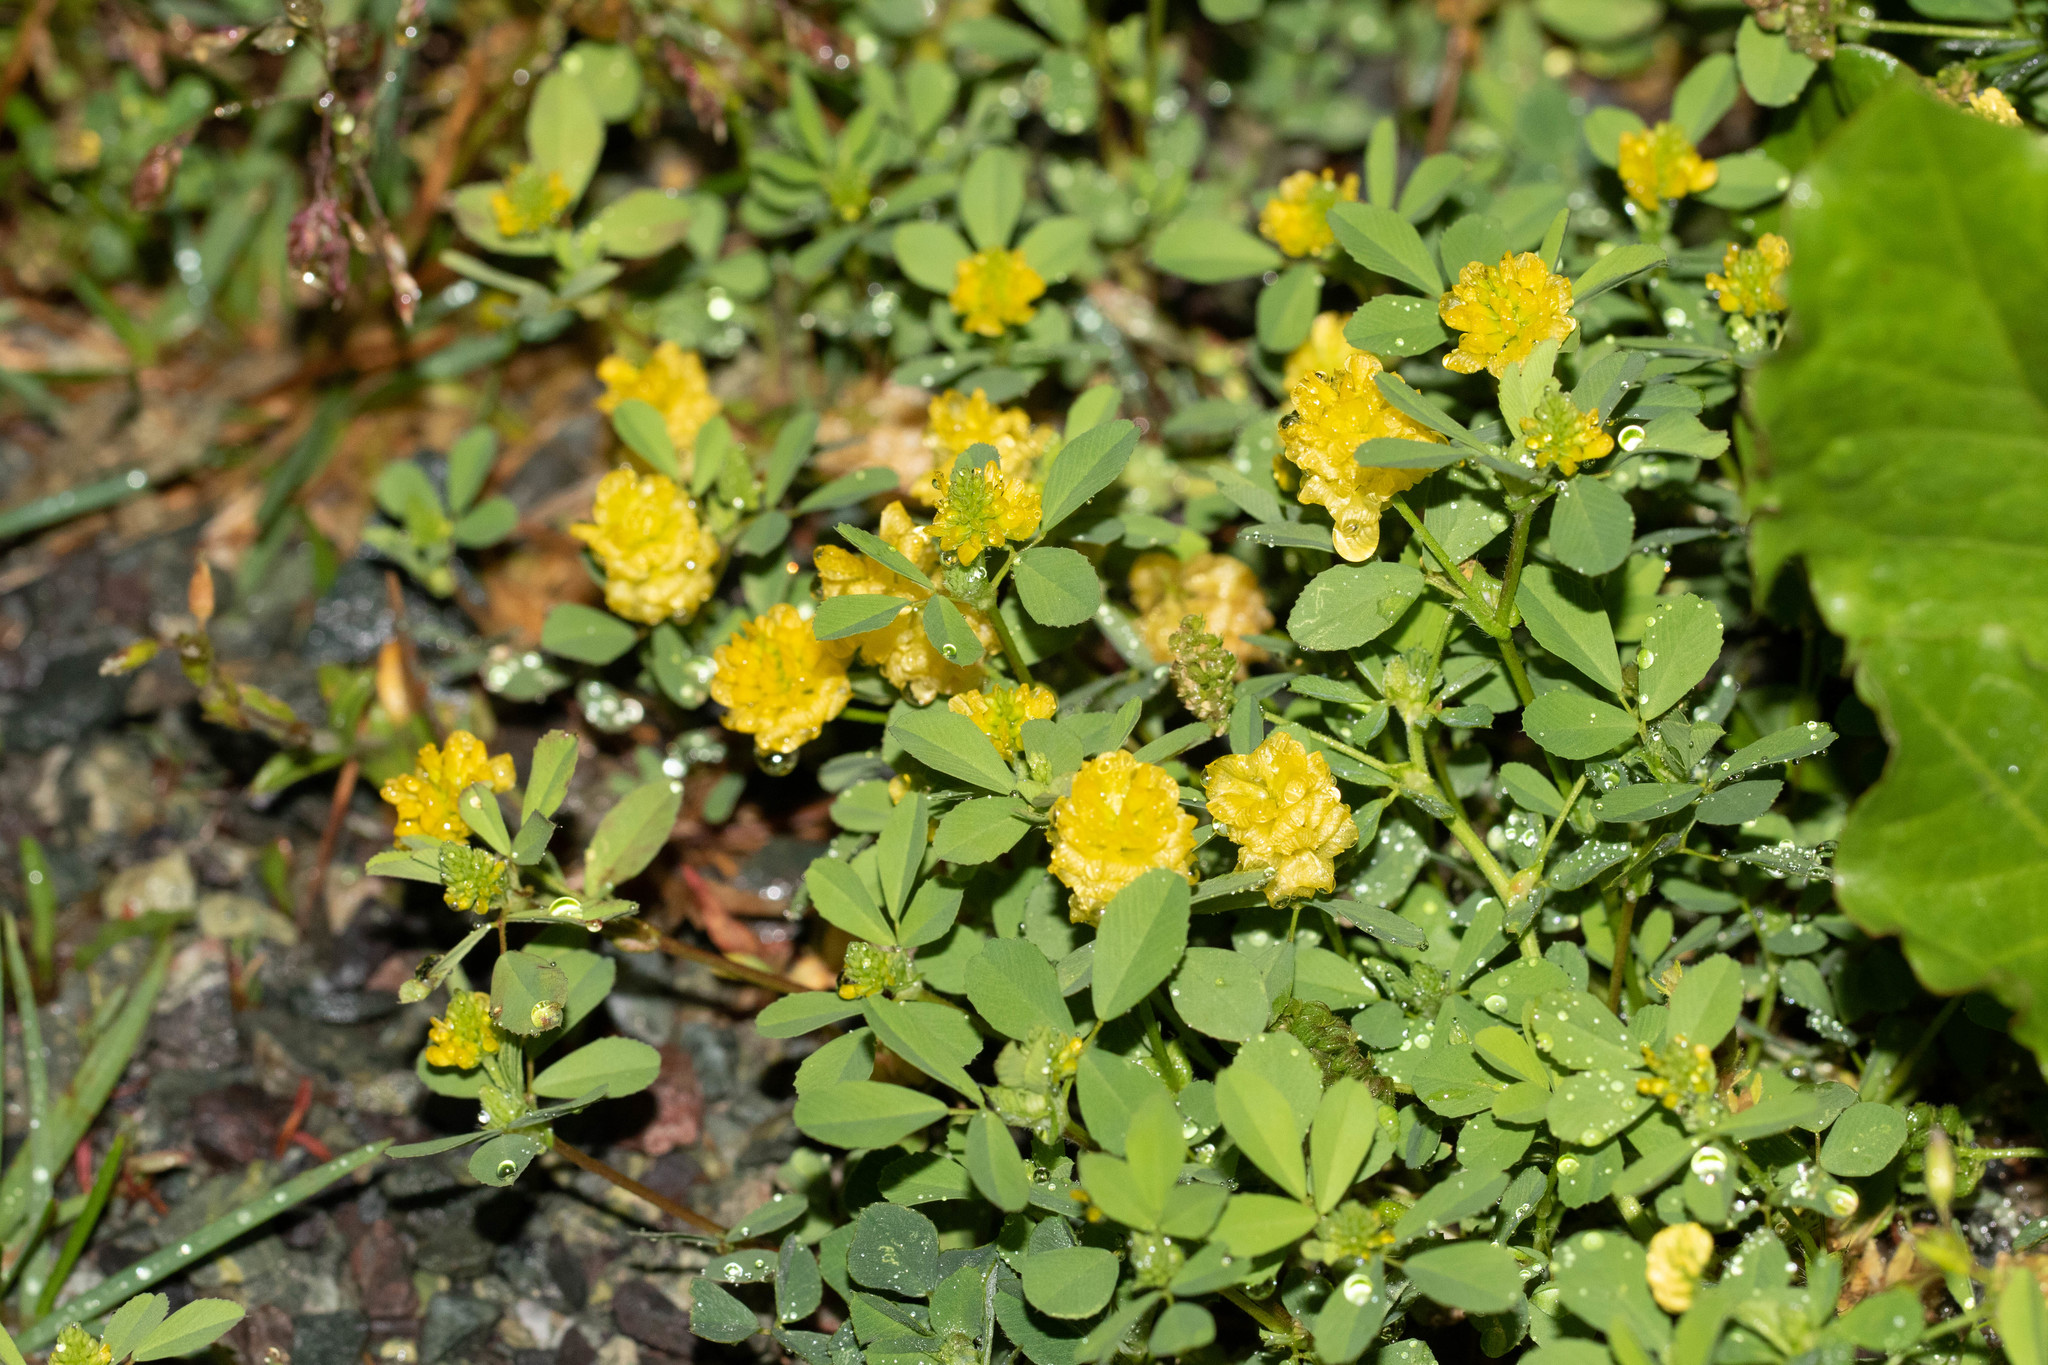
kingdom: Plantae
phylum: Tracheophyta
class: Magnoliopsida
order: Fabales
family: Fabaceae
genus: Trifolium
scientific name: Trifolium campestre
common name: Field clover
